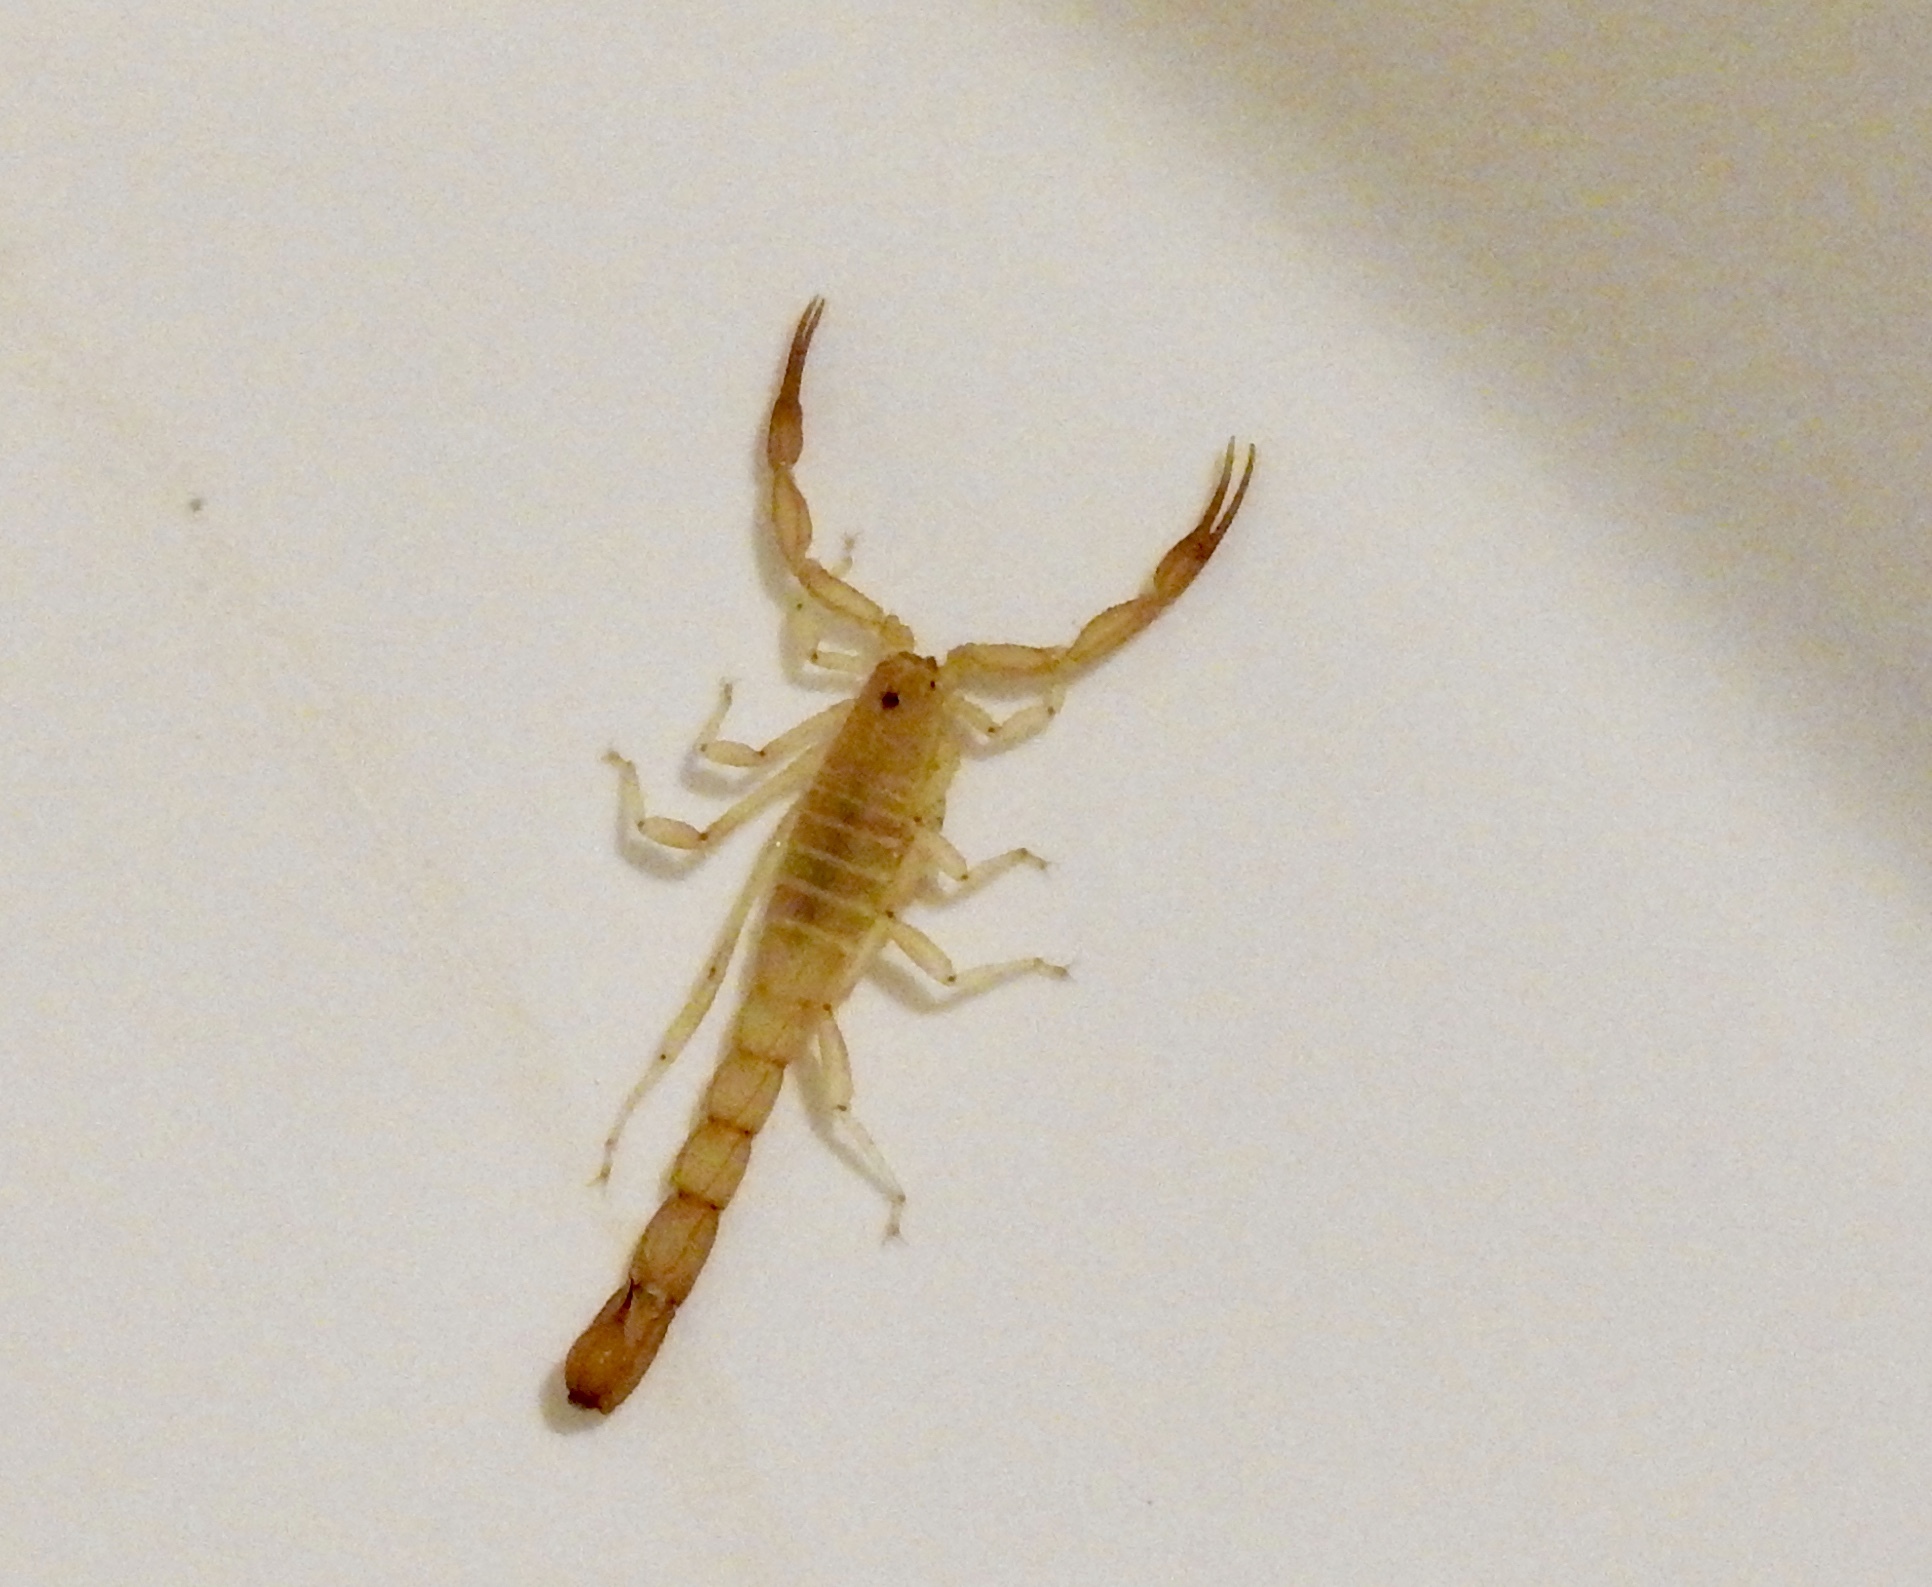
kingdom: Animalia
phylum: Arthropoda
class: Arachnida
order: Scorpiones
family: Vaejovidae
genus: Paravaejovis
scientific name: Paravaejovis waeringi
